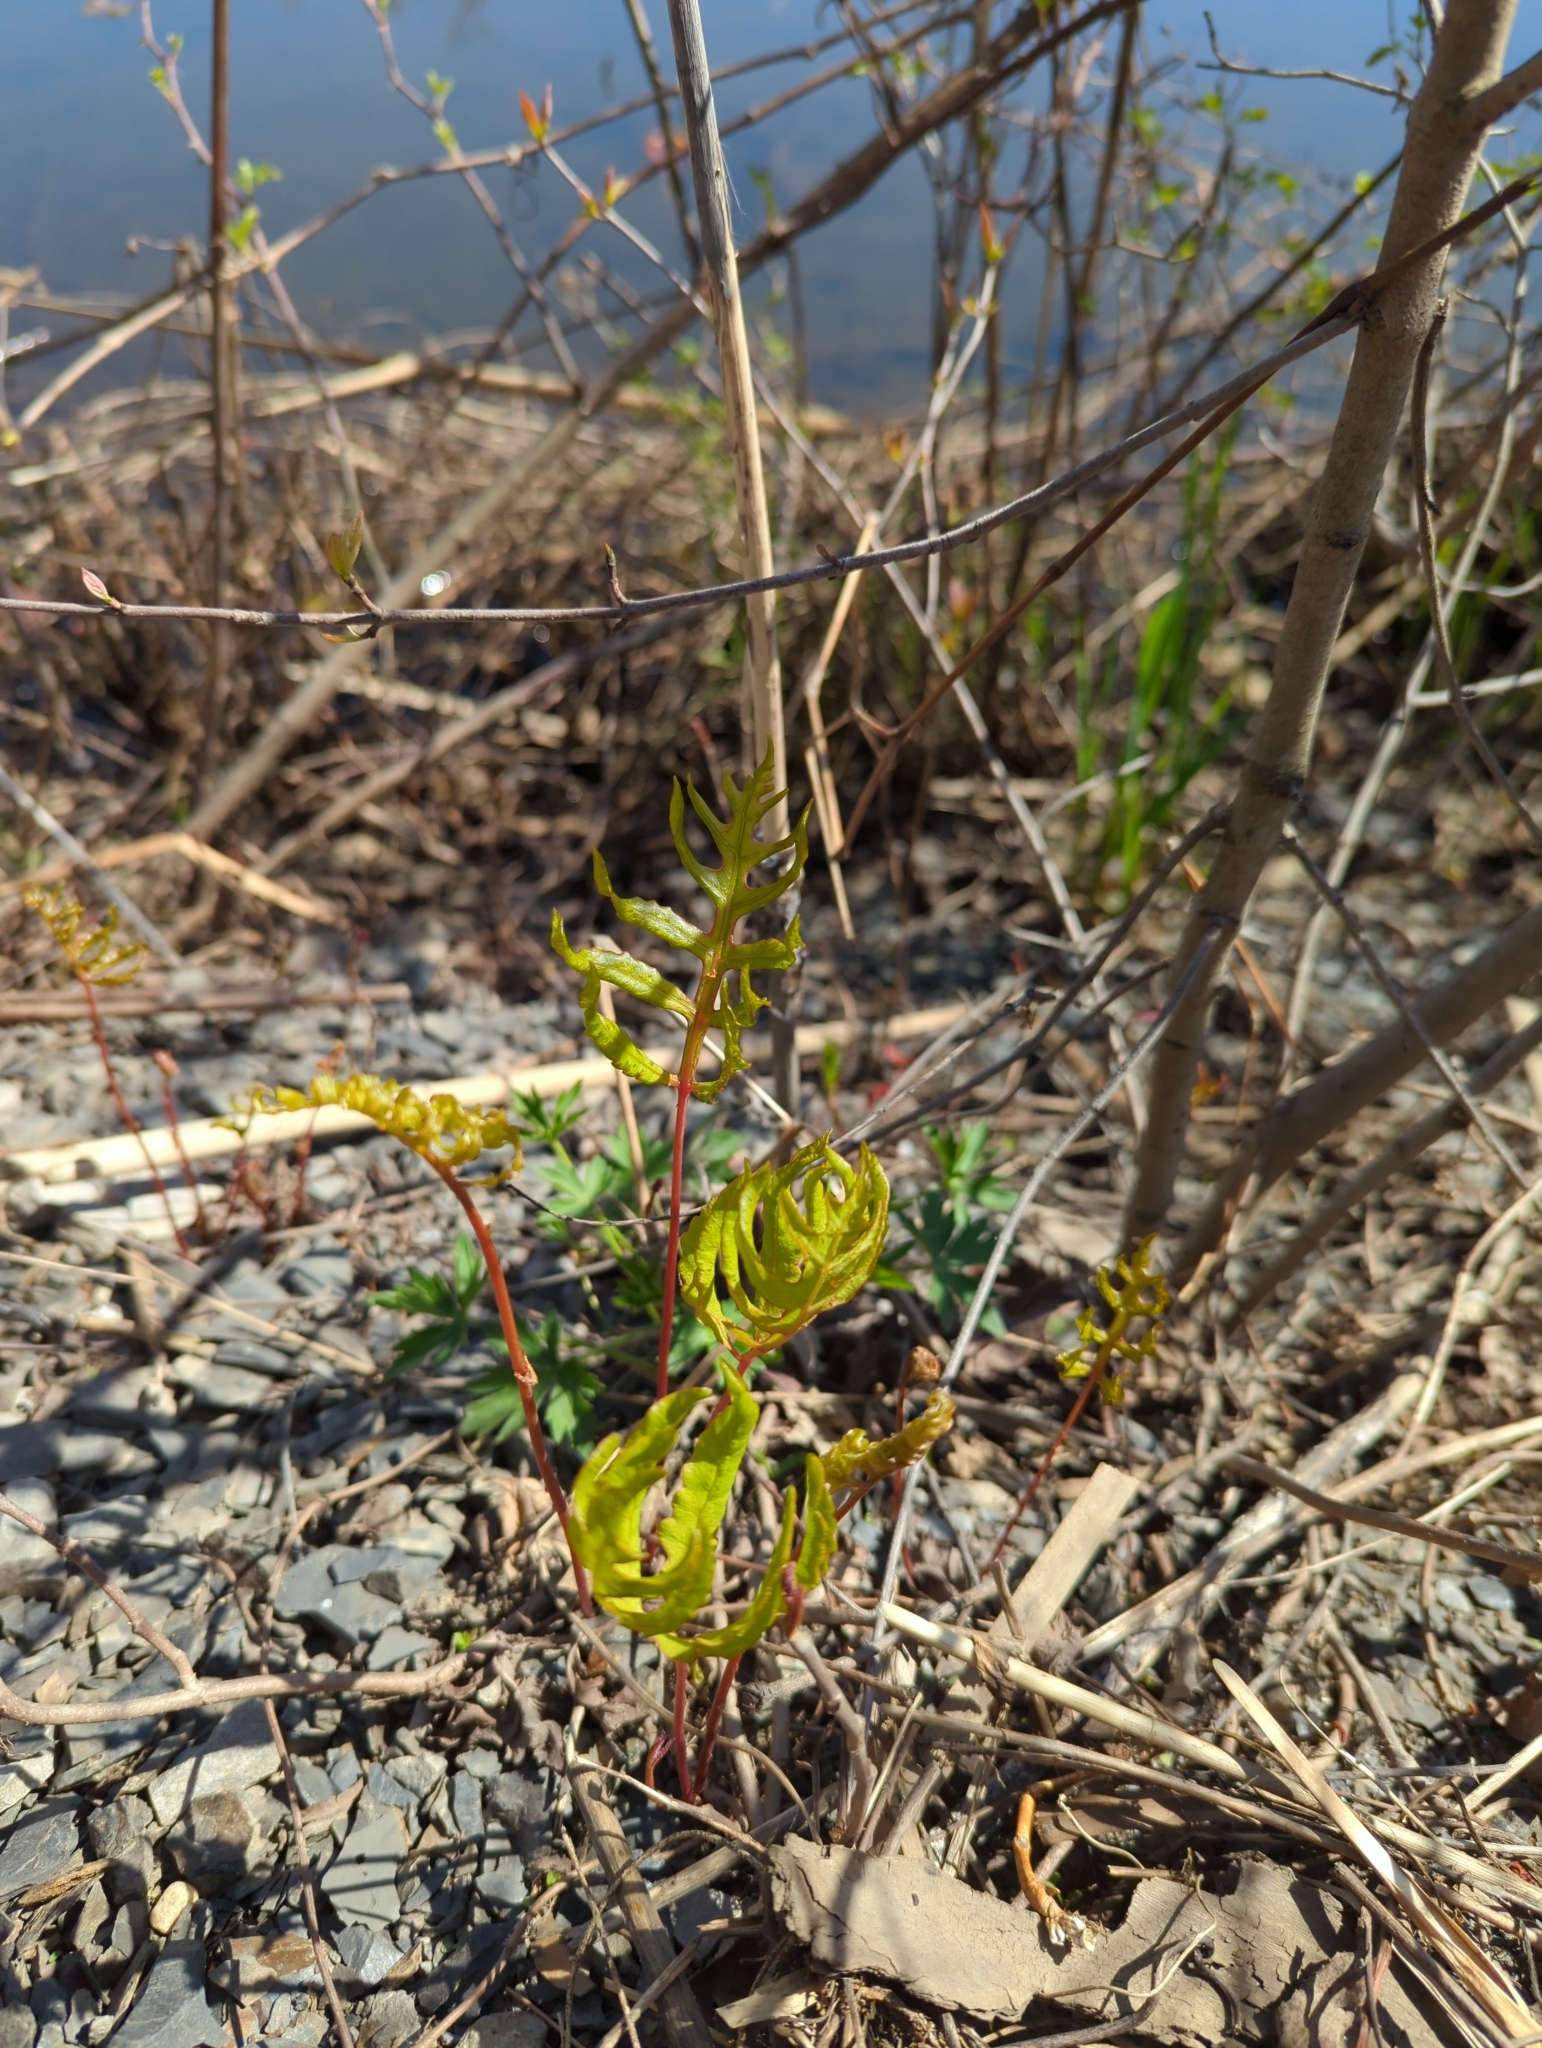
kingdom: Plantae
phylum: Tracheophyta
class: Polypodiopsida
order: Polypodiales
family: Onocleaceae
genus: Onoclea
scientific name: Onoclea sensibilis
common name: Sensitive fern
